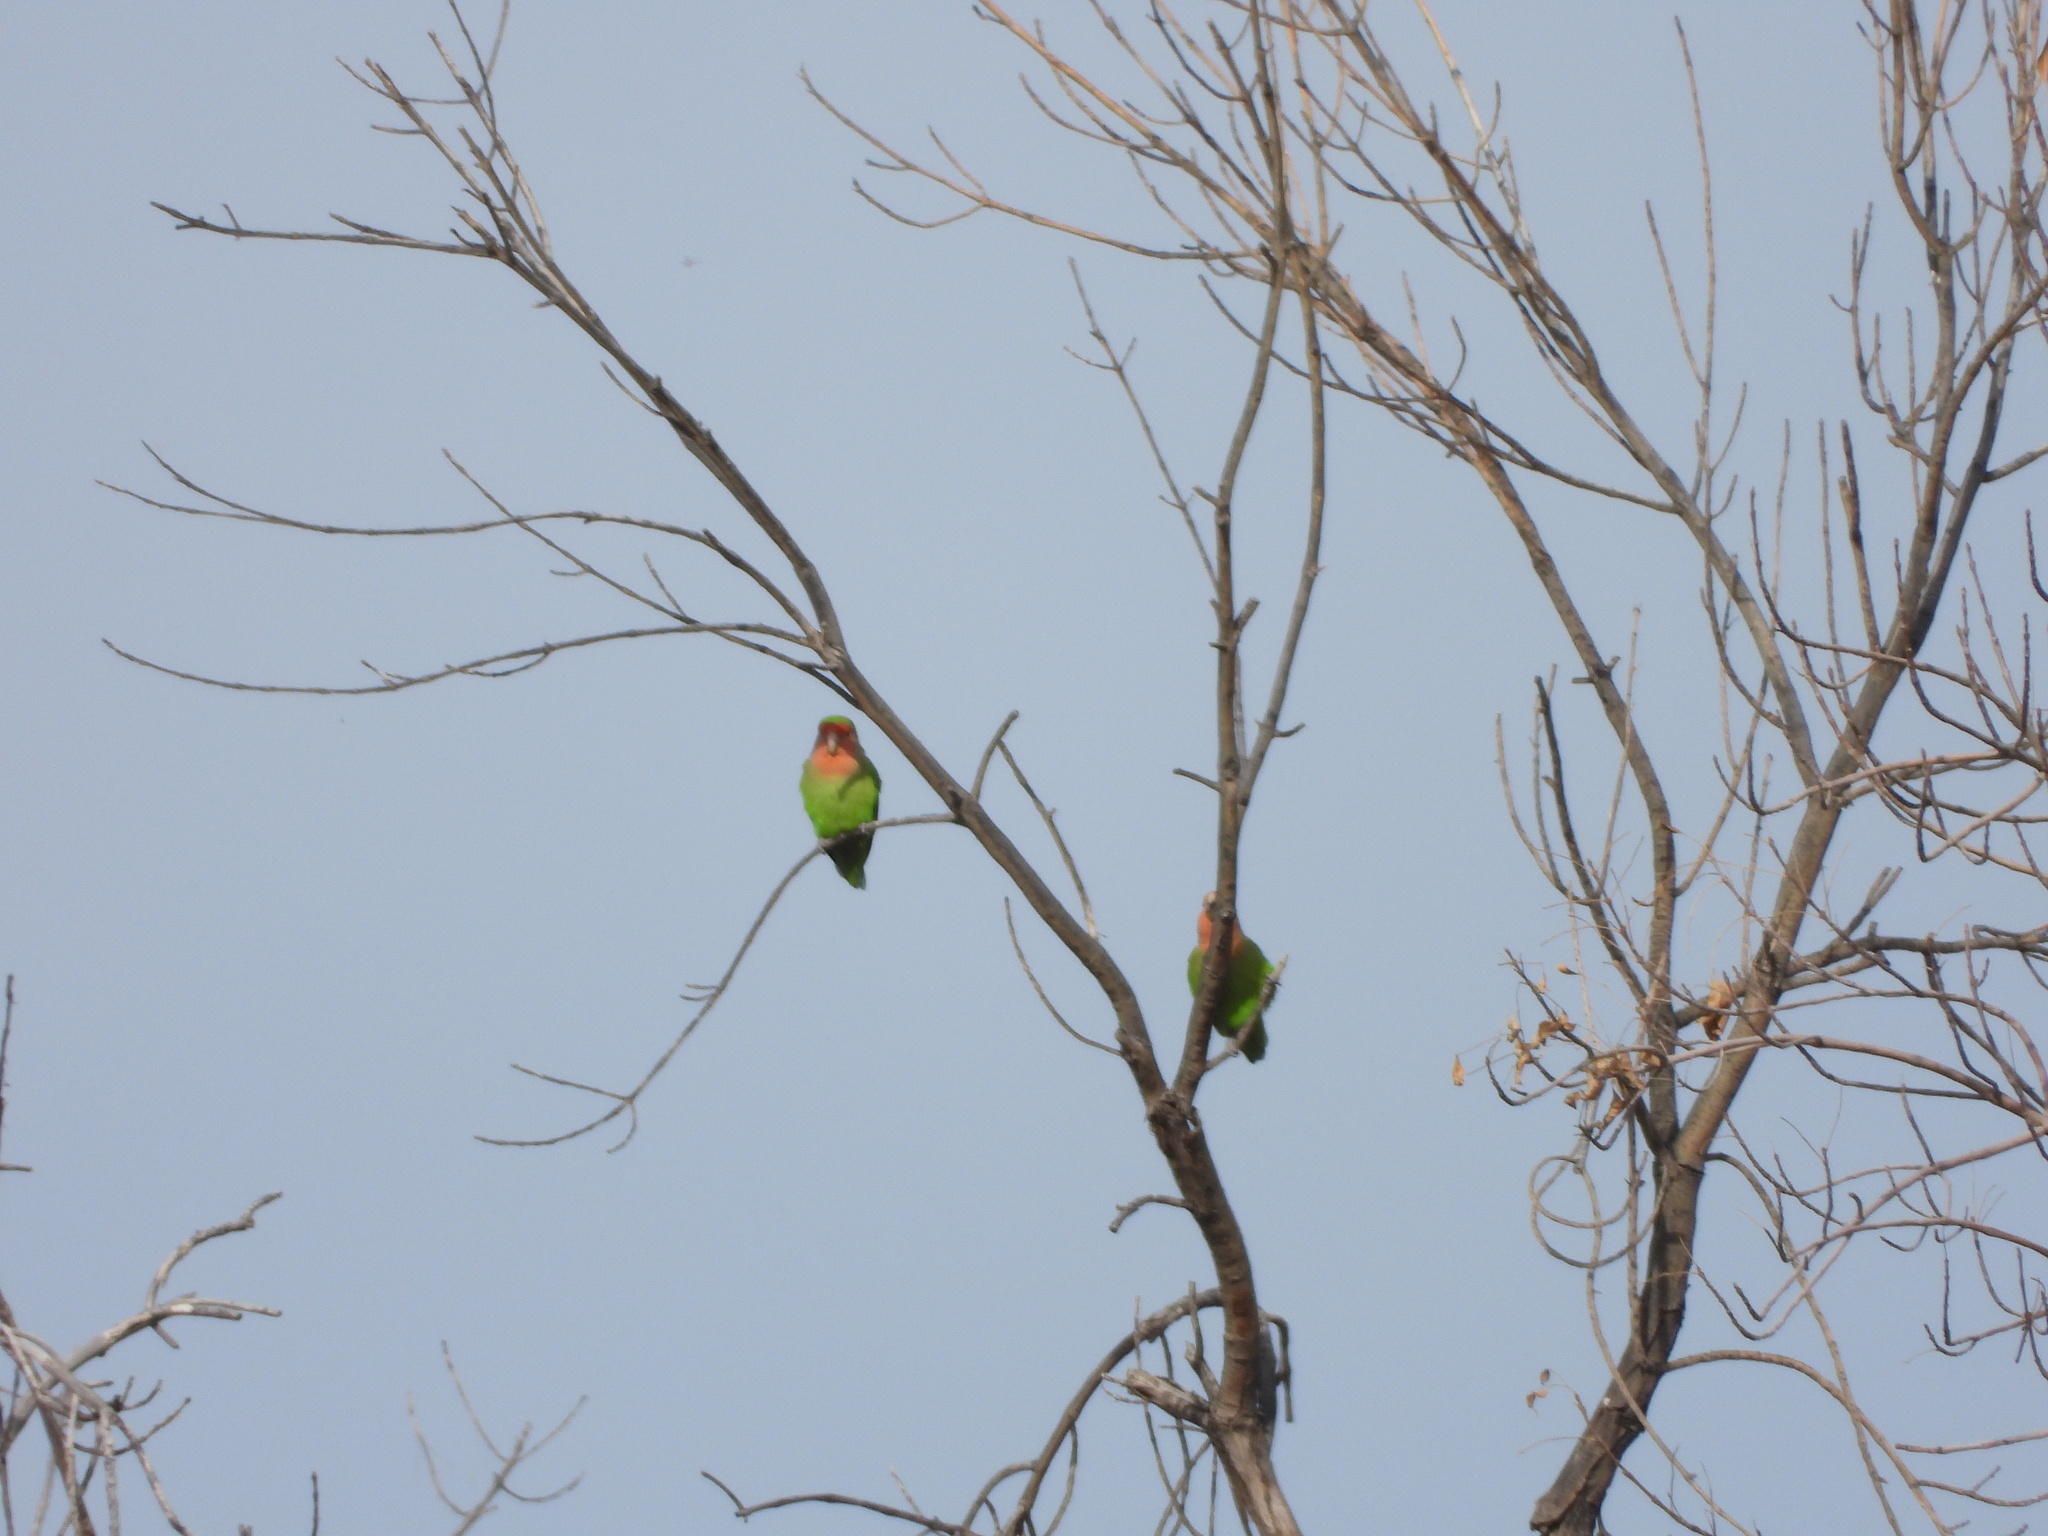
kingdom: Animalia
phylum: Chordata
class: Aves
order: Psittaciformes
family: Psittacidae
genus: Agapornis
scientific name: Agapornis roseicollis
